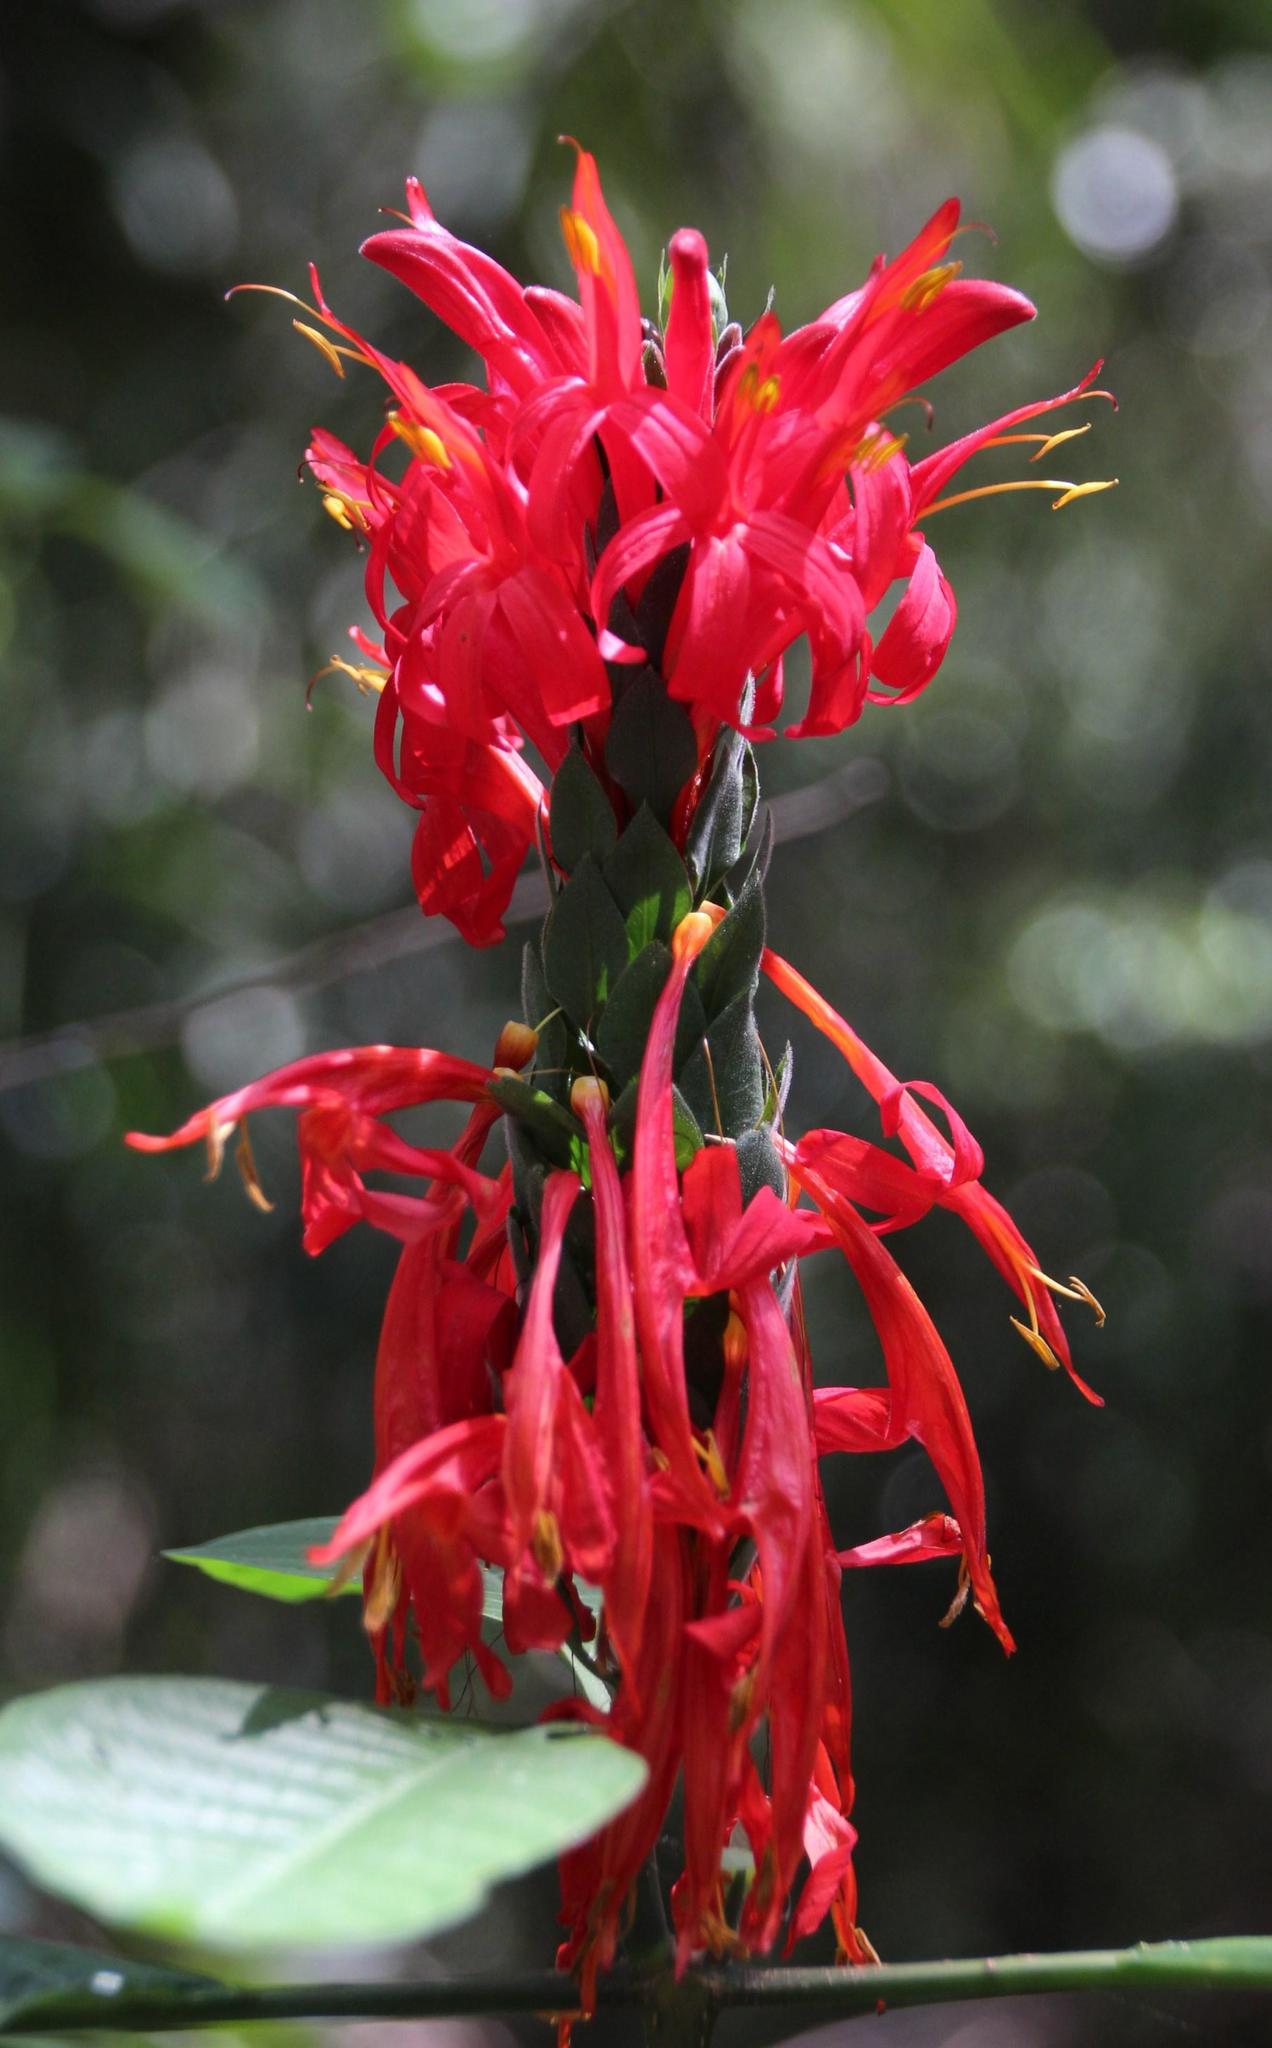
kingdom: Plantae
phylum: Tracheophyta
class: Magnoliopsida
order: Lamiales
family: Acanthaceae
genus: Pachystachys
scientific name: Pachystachys spicata
